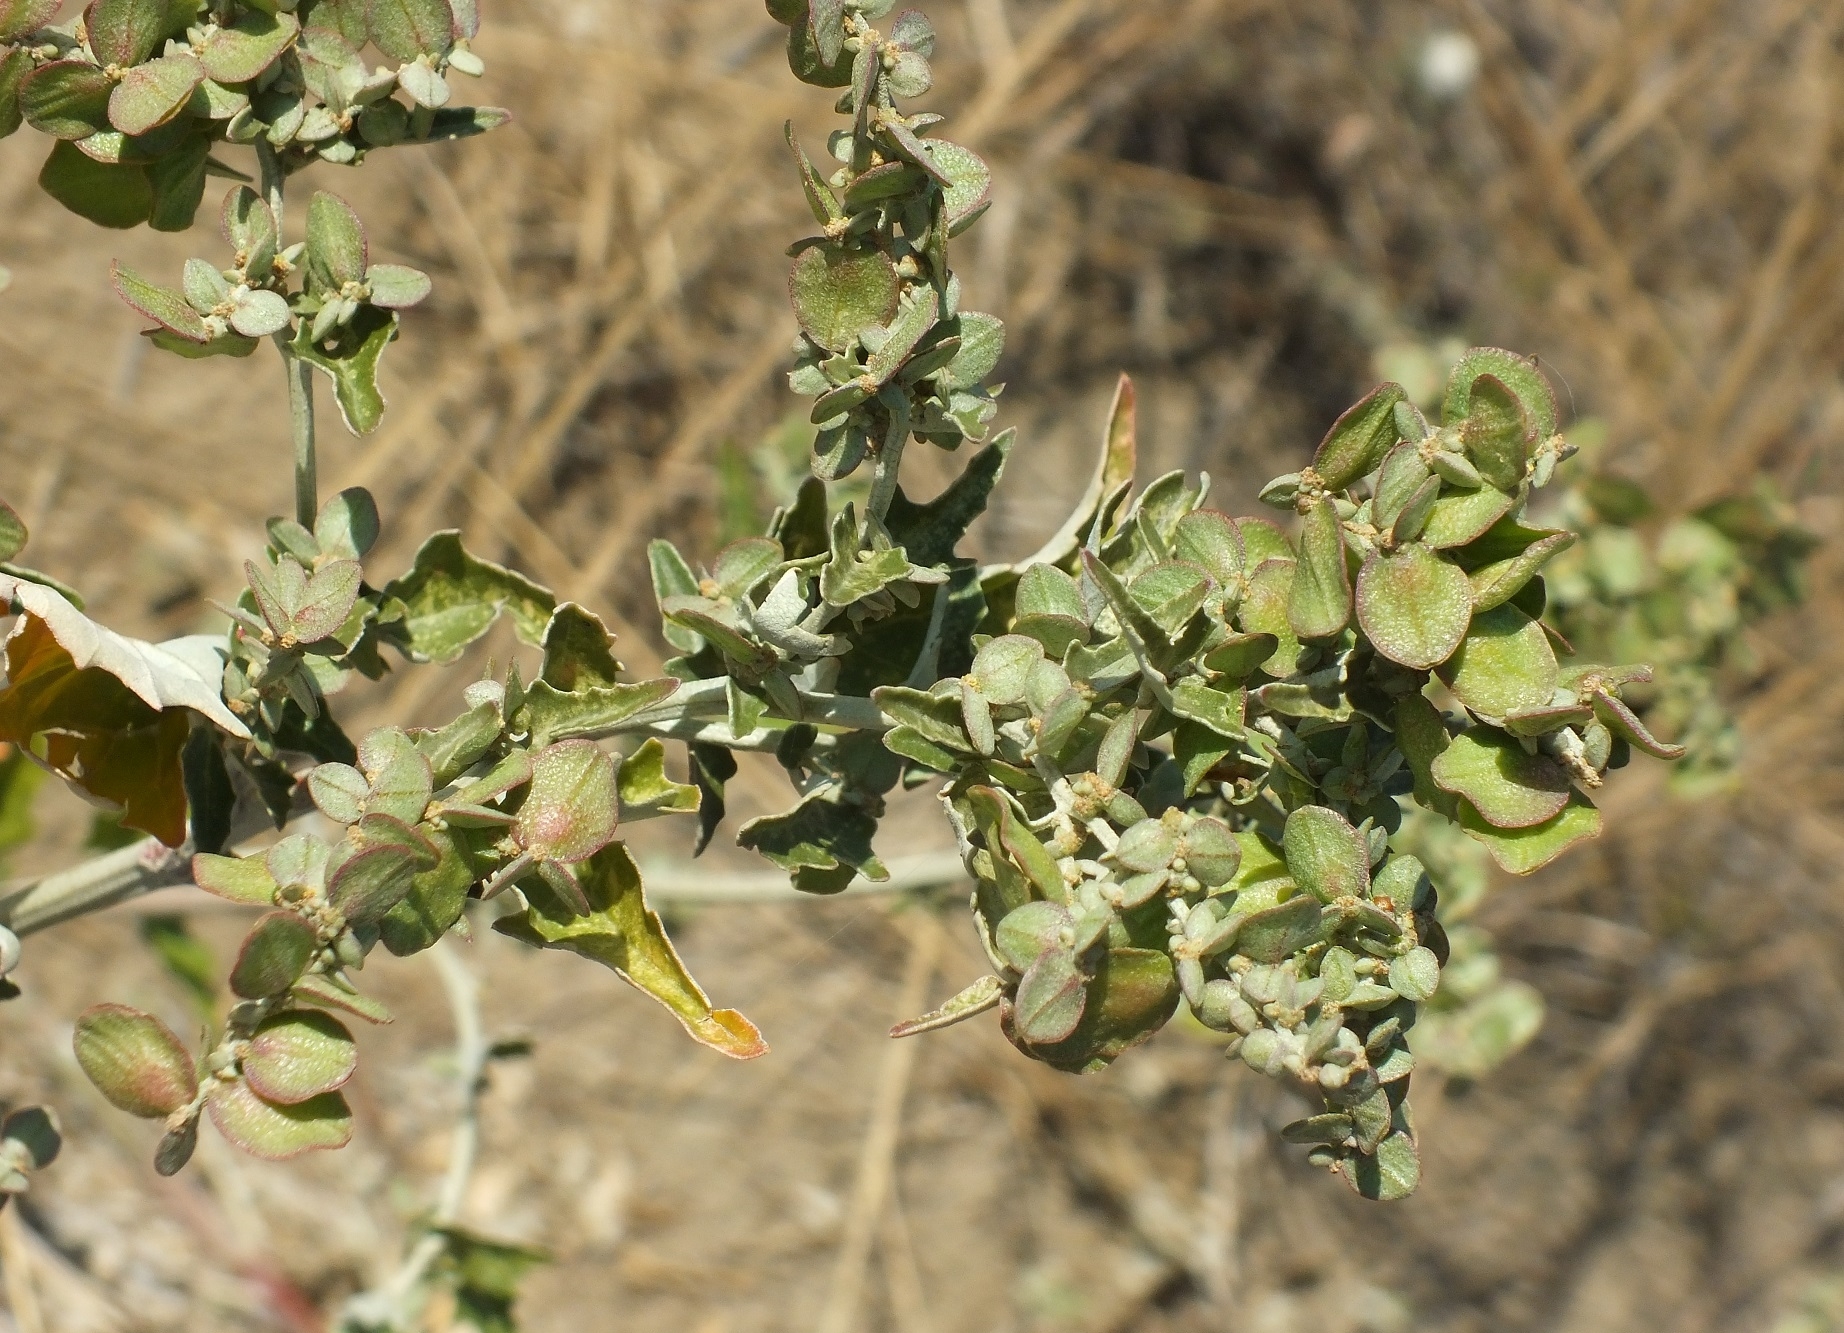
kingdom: Plantae
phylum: Tracheophyta
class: Magnoliopsida
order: Caryophyllales
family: Amaranthaceae
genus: Atriplex
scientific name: Atriplex aucheri
